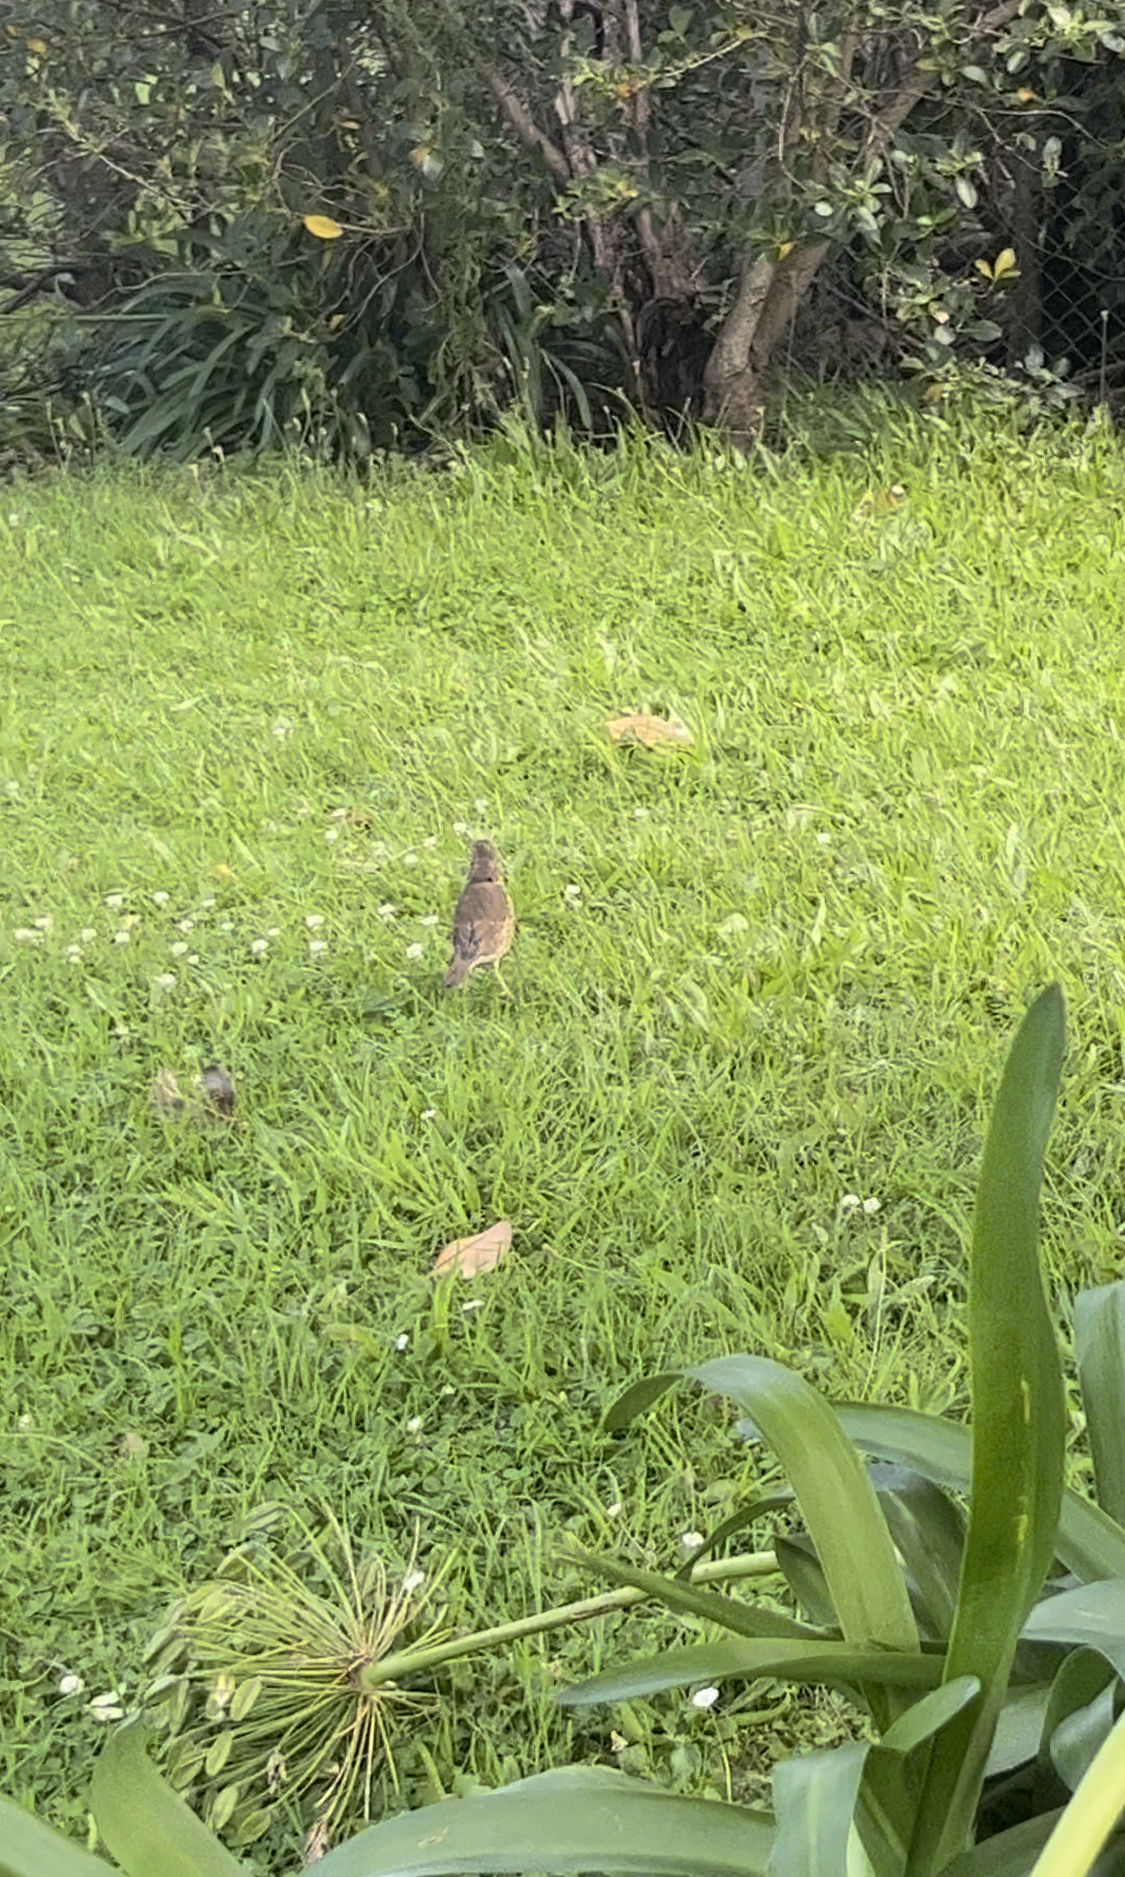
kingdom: Animalia
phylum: Chordata
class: Aves
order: Passeriformes
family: Turdidae
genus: Turdus
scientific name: Turdus philomelos
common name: Song thrush
